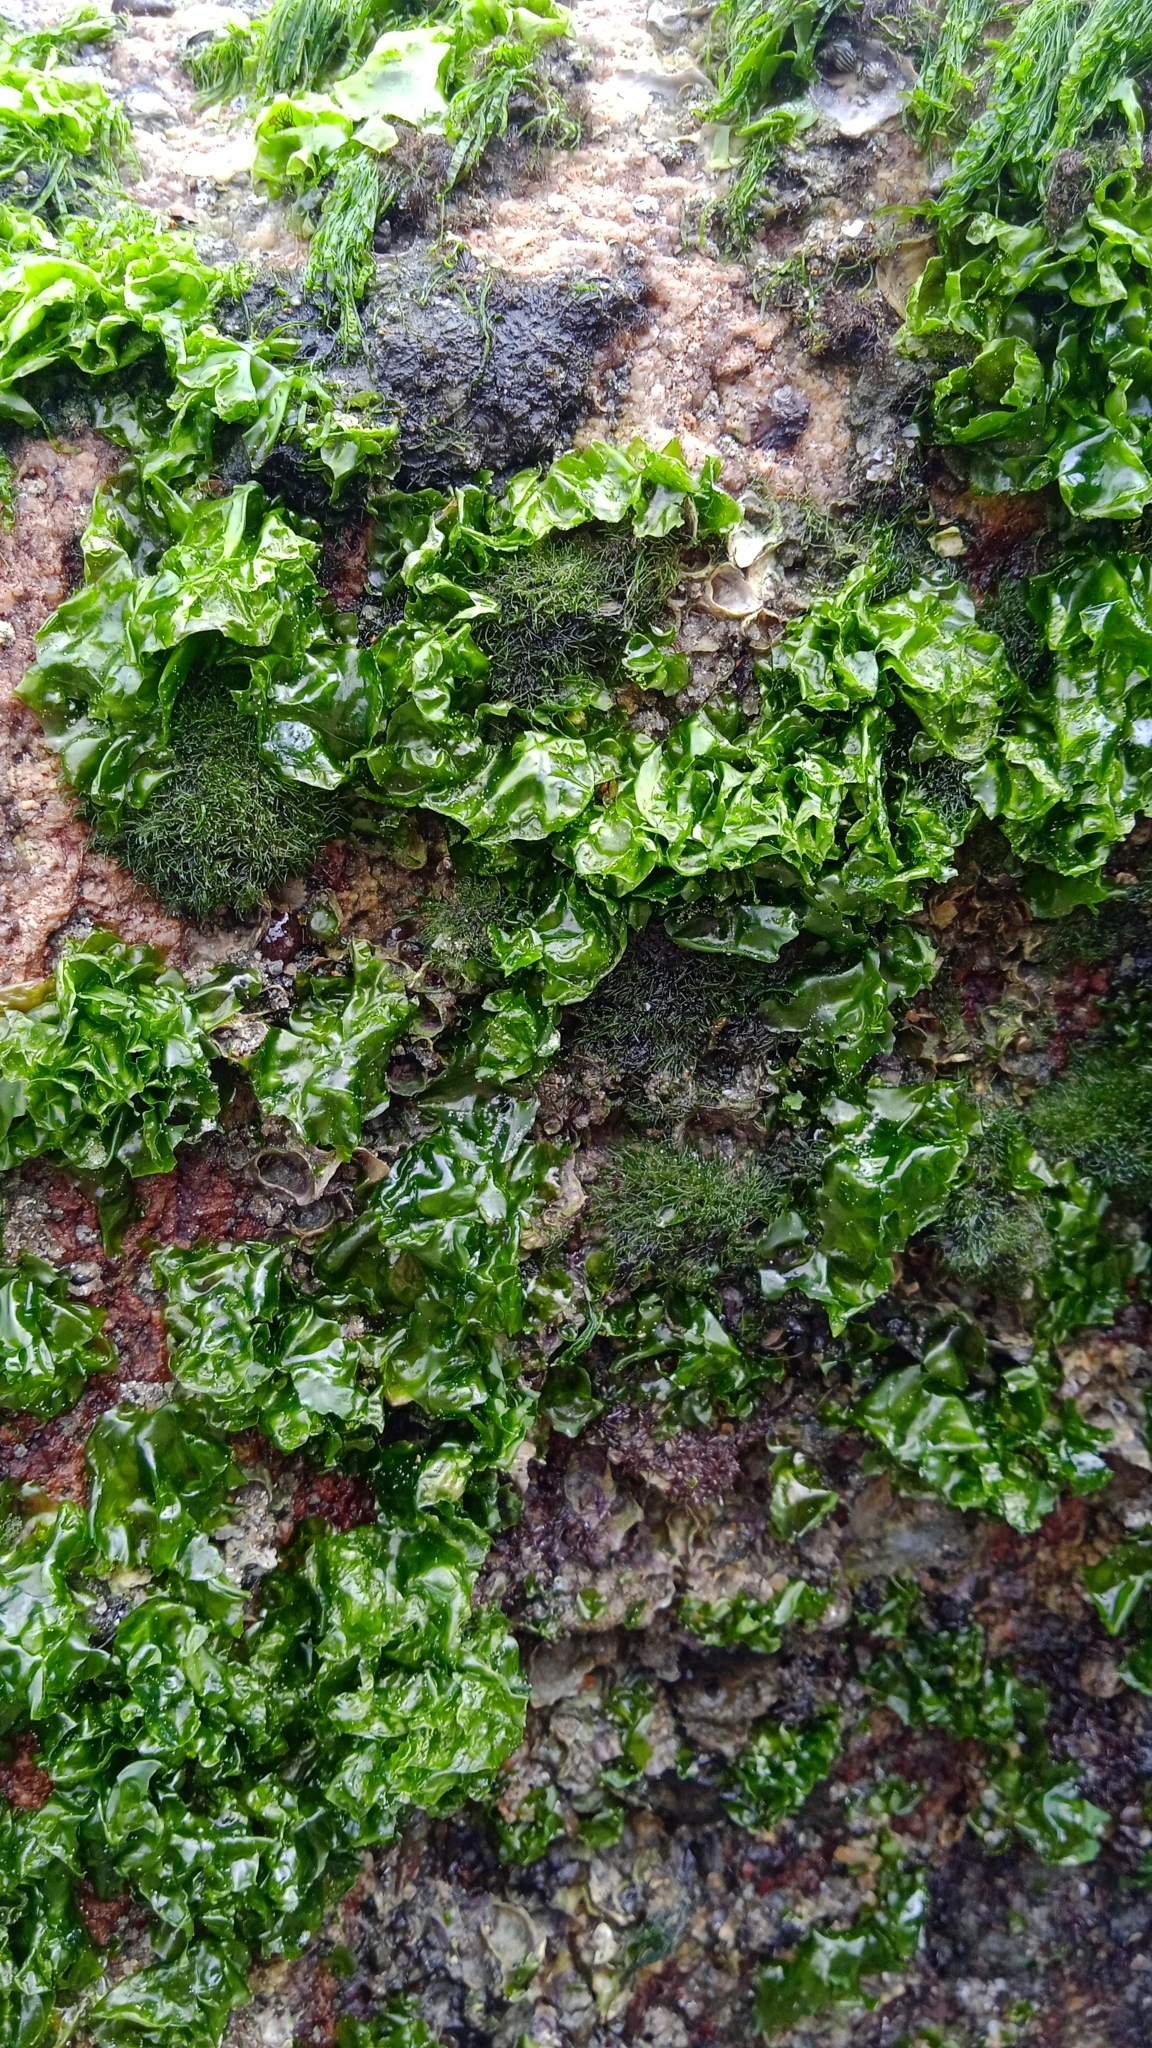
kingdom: Plantae
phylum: Chlorophyta
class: Ulvophyceae
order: Ulvales
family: Ulvaceae
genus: Ulva
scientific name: Ulva lactuca
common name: Sea lettuce
